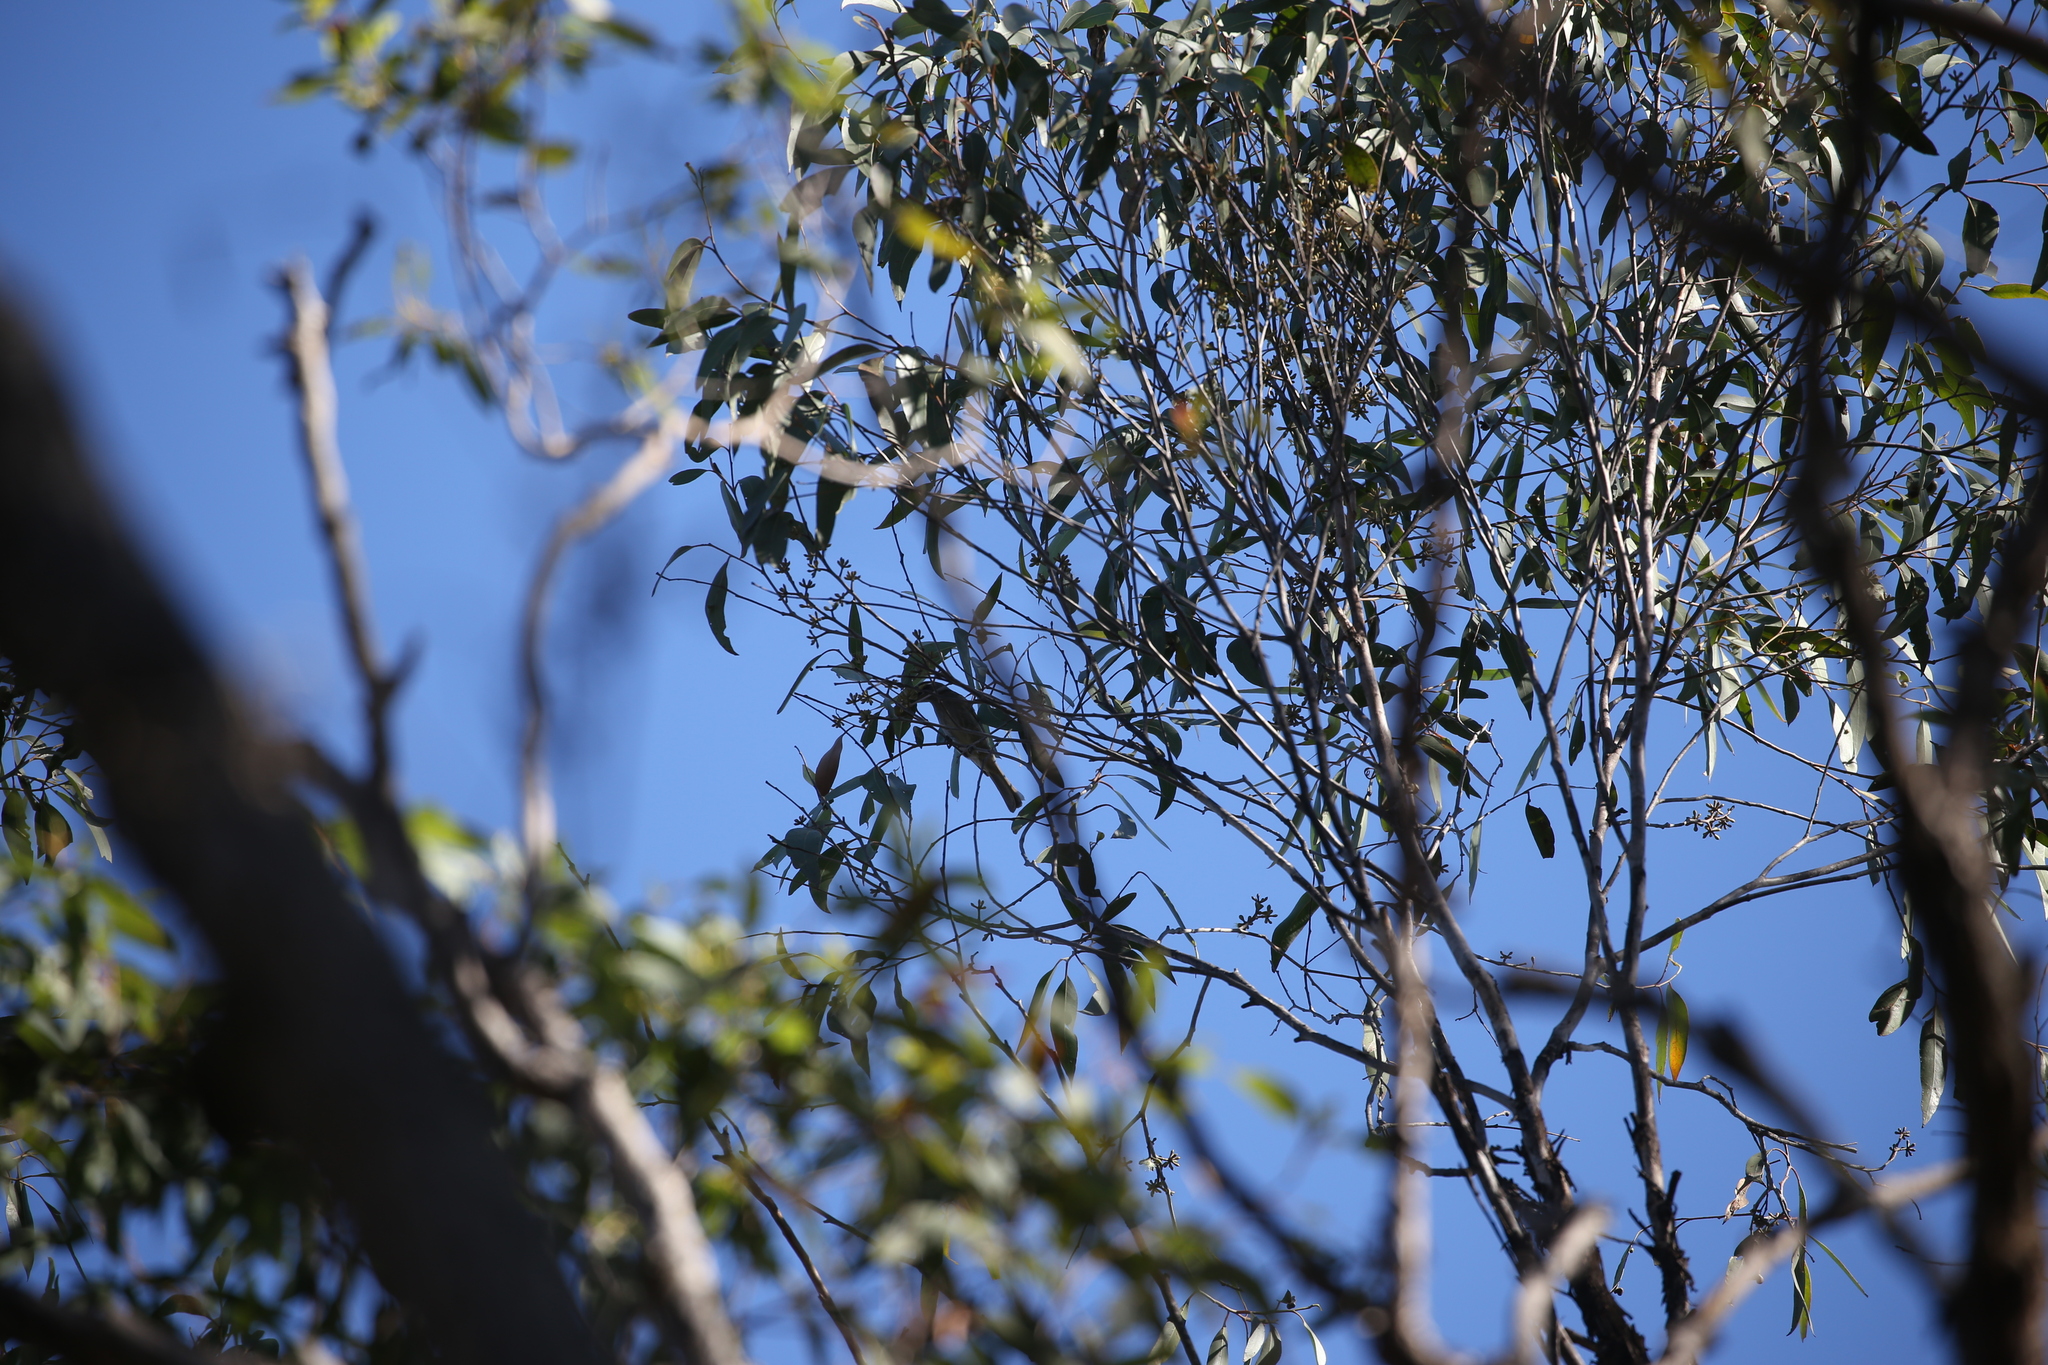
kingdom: Animalia
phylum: Chordata
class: Aves
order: Passeriformes
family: Meliphagidae
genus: Caligavis
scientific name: Caligavis chrysops
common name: Yellow-faced honeyeater
